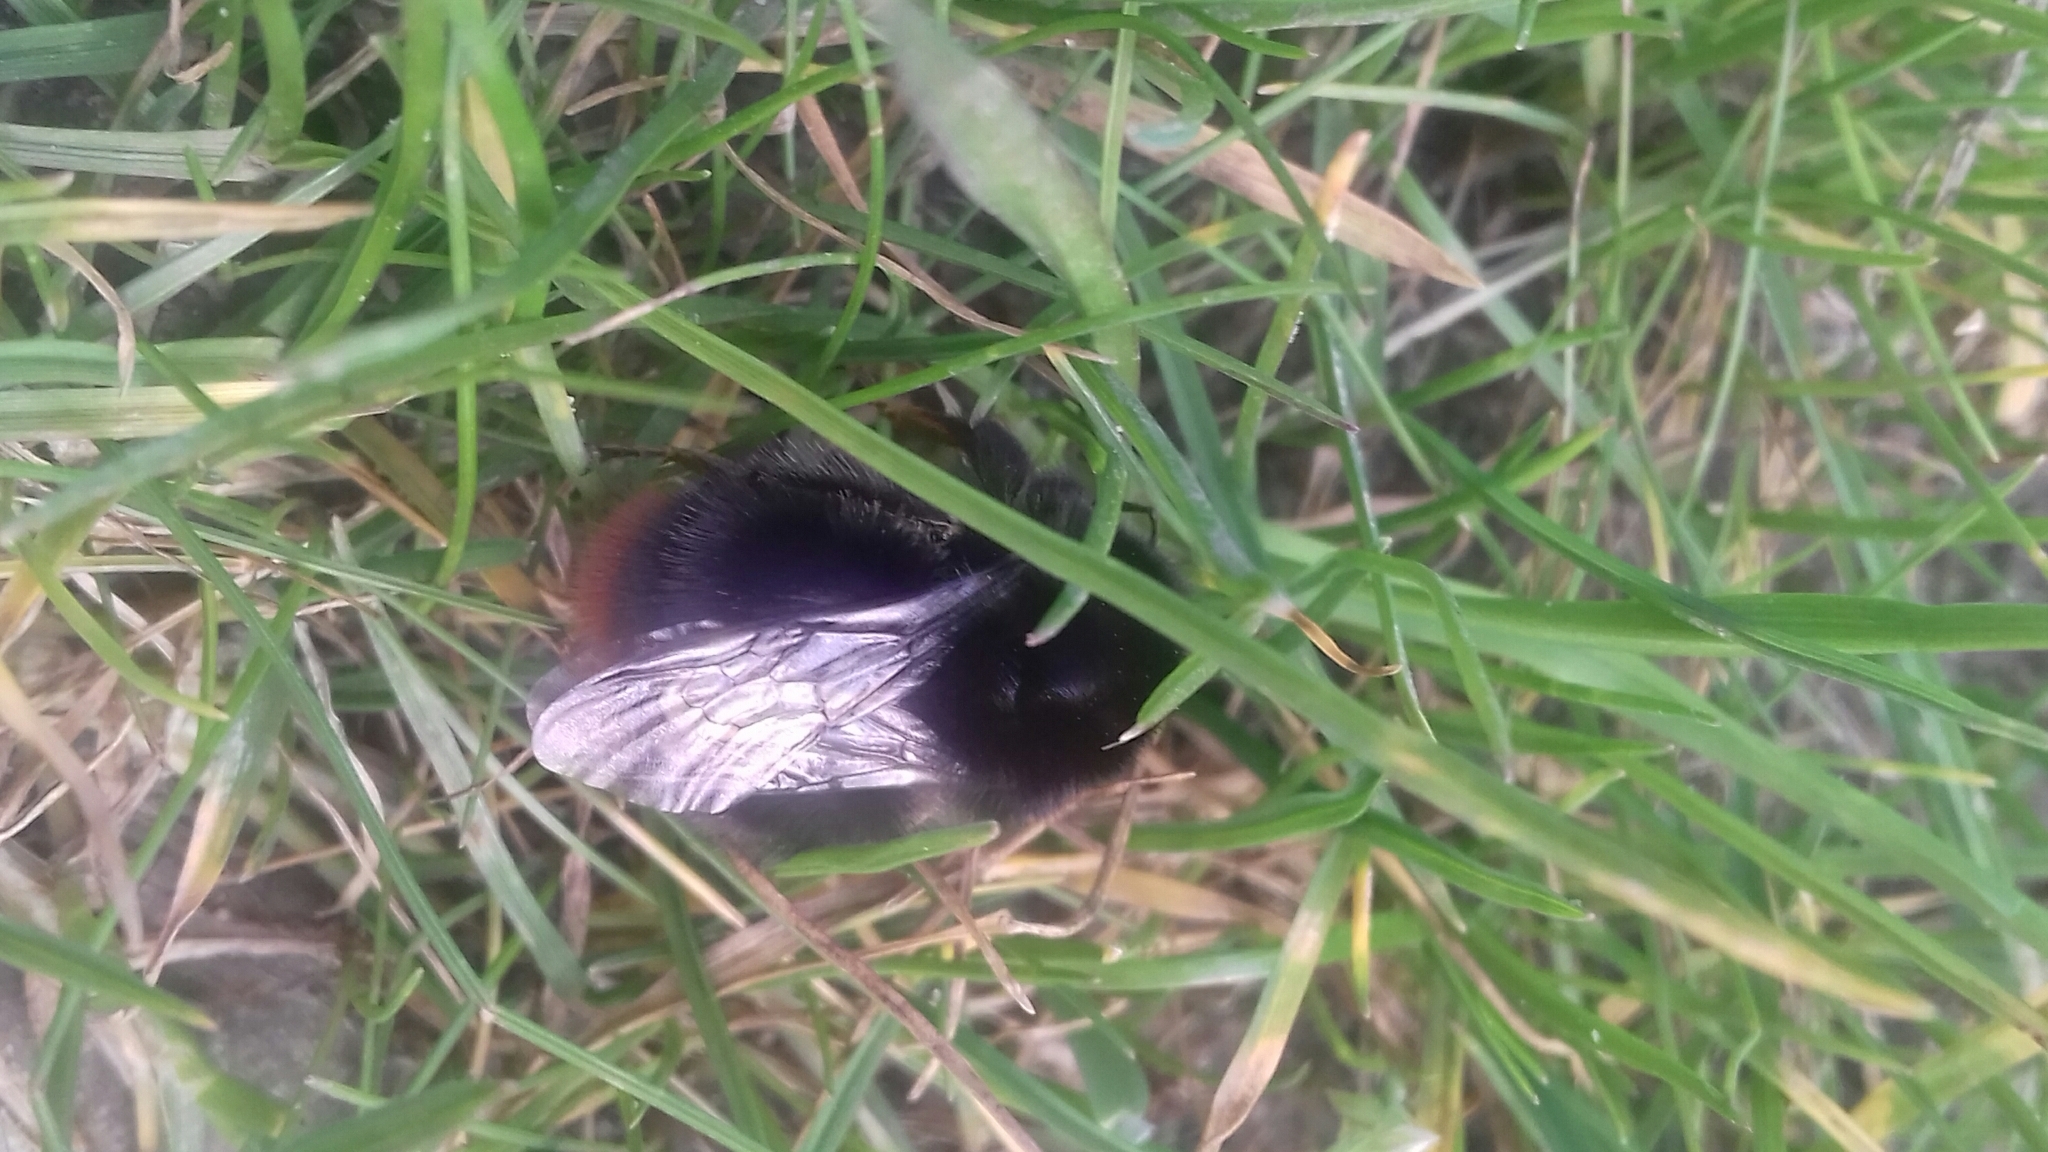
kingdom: Animalia
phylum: Arthropoda
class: Insecta
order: Hymenoptera
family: Apidae
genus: Bombus
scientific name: Bombus lapidarius
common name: Large red-tailed humble-bee
